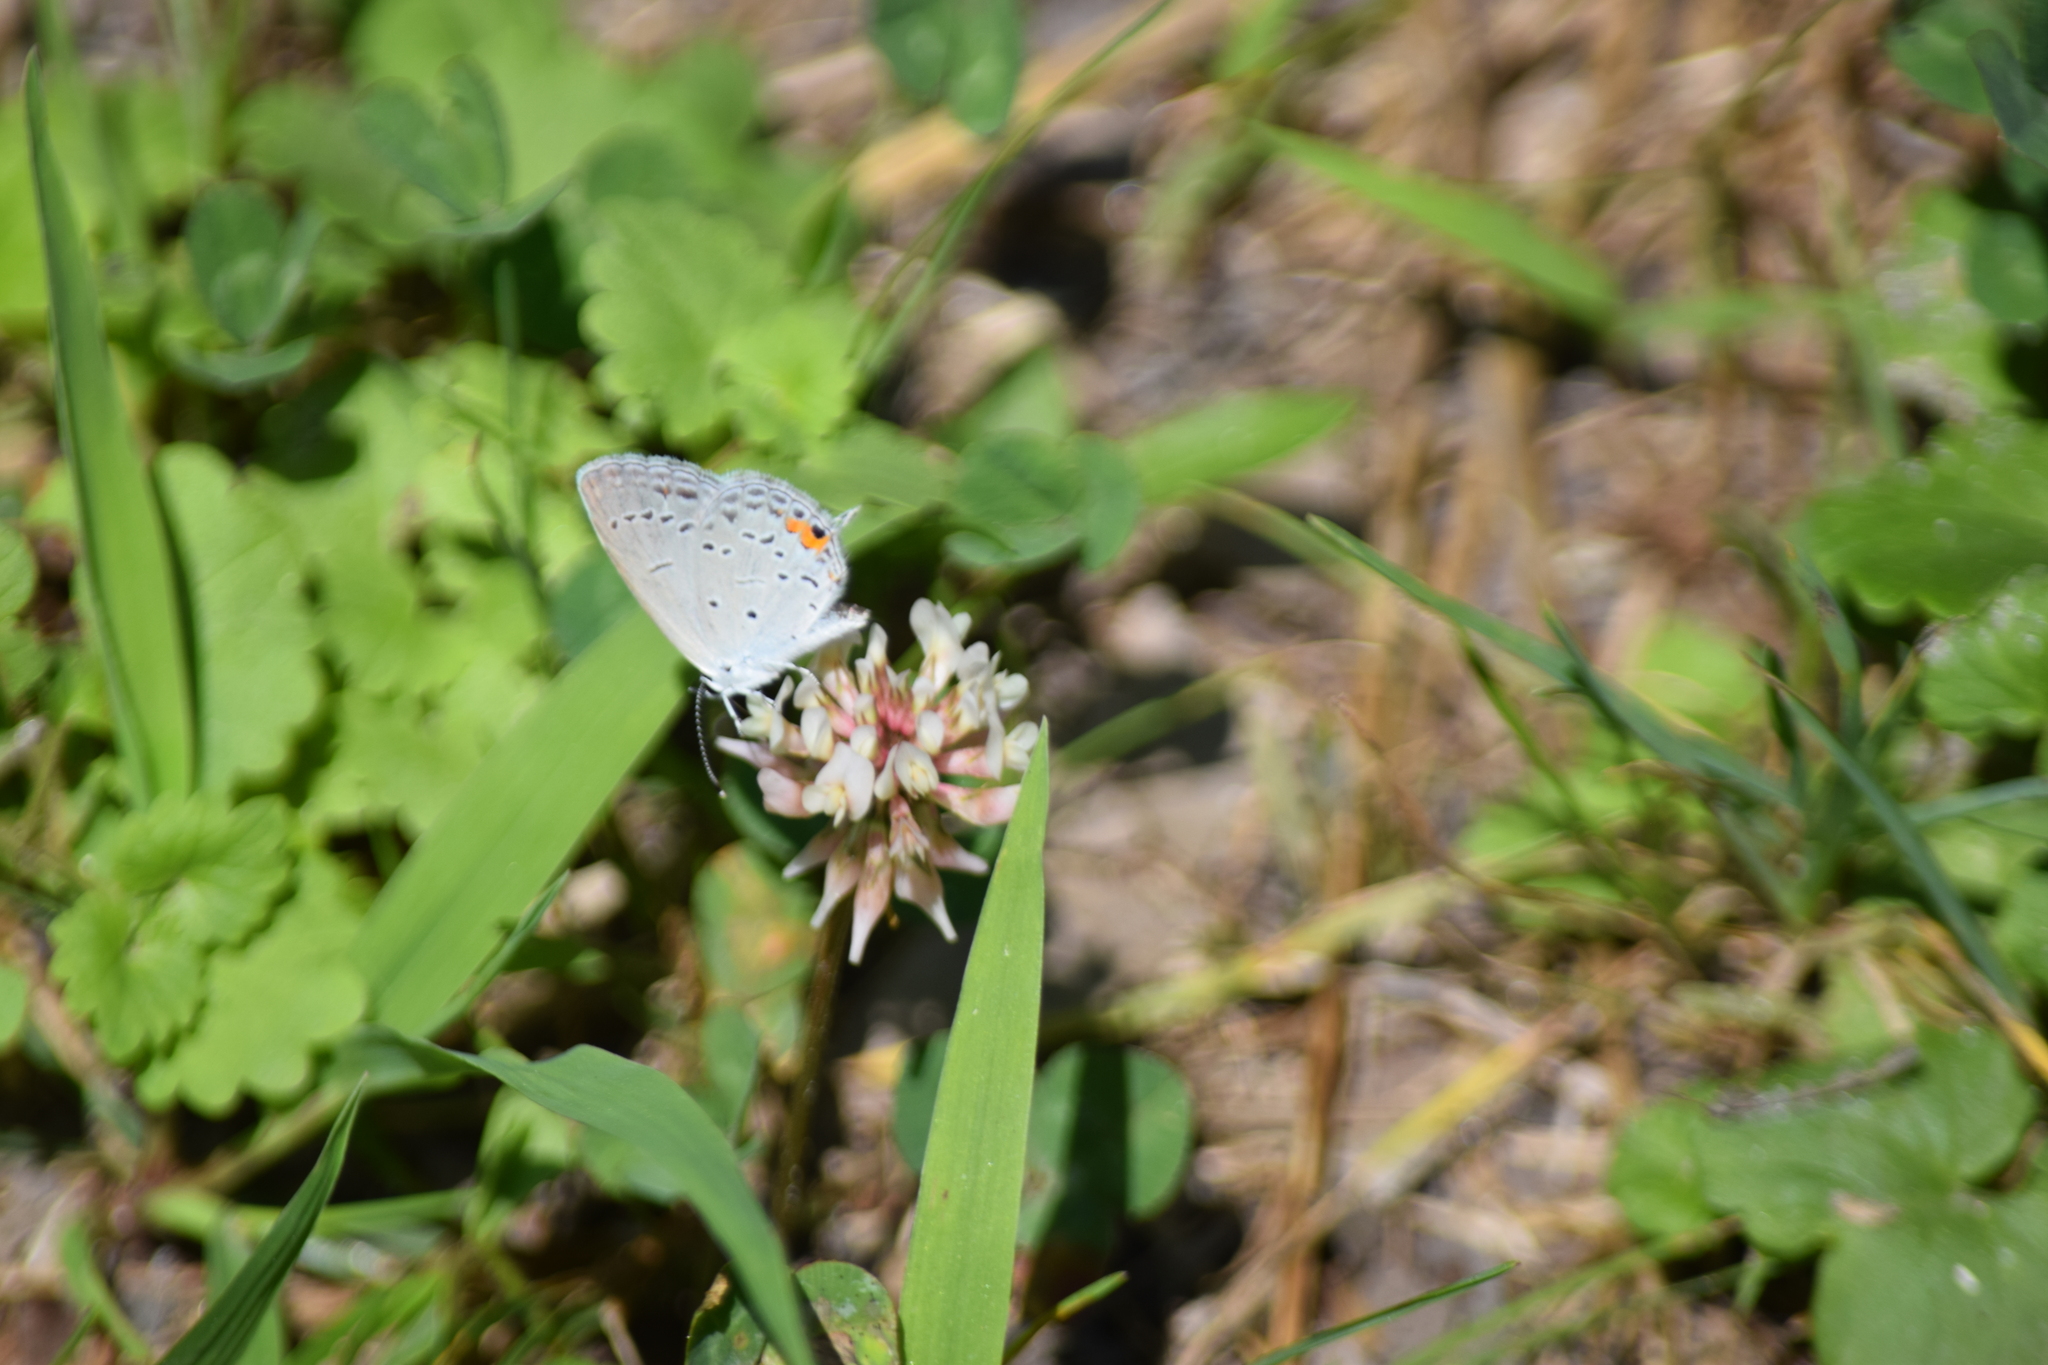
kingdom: Animalia
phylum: Arthropoda
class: Insecta
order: Lepidoptera
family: Lycaenidae
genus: Elkalyce
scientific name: Elkalyce comyntas
